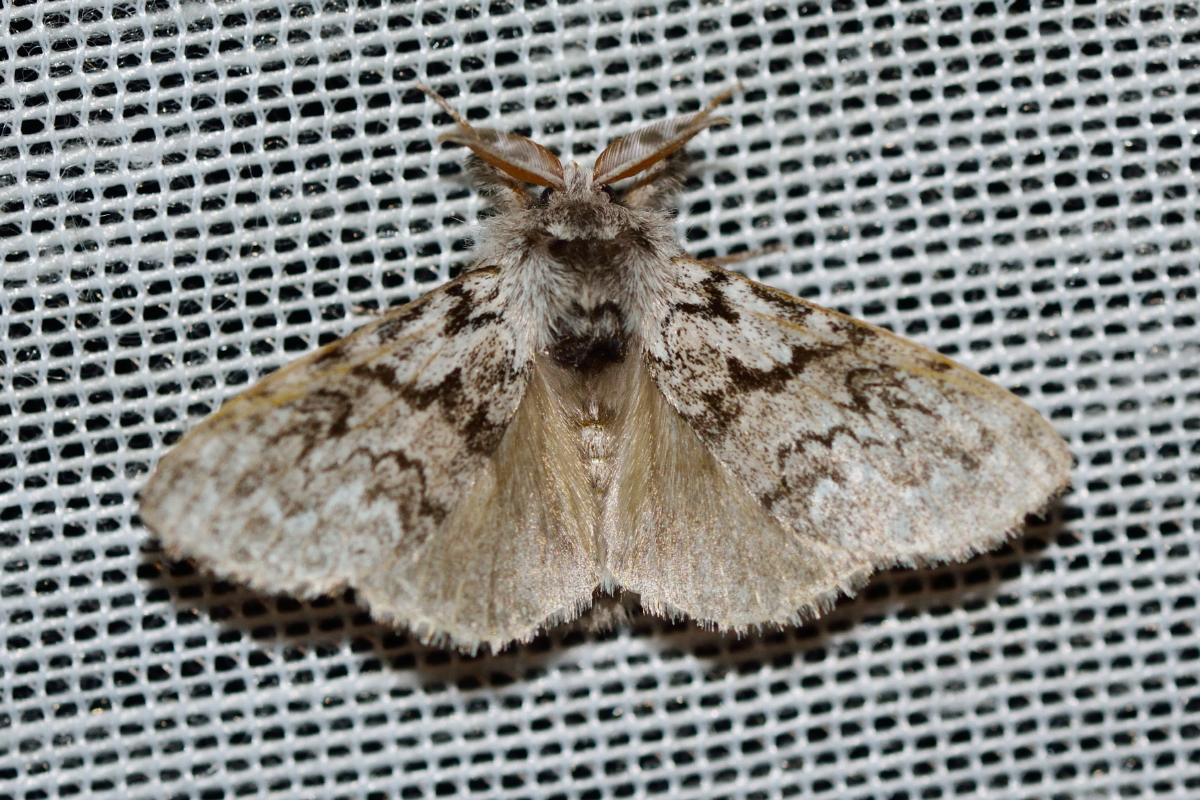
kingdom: Animalia
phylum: Arthropoda
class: Insecta
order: Lepidoptera
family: Erebidae
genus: Calliteara
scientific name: Calliteara abietis
